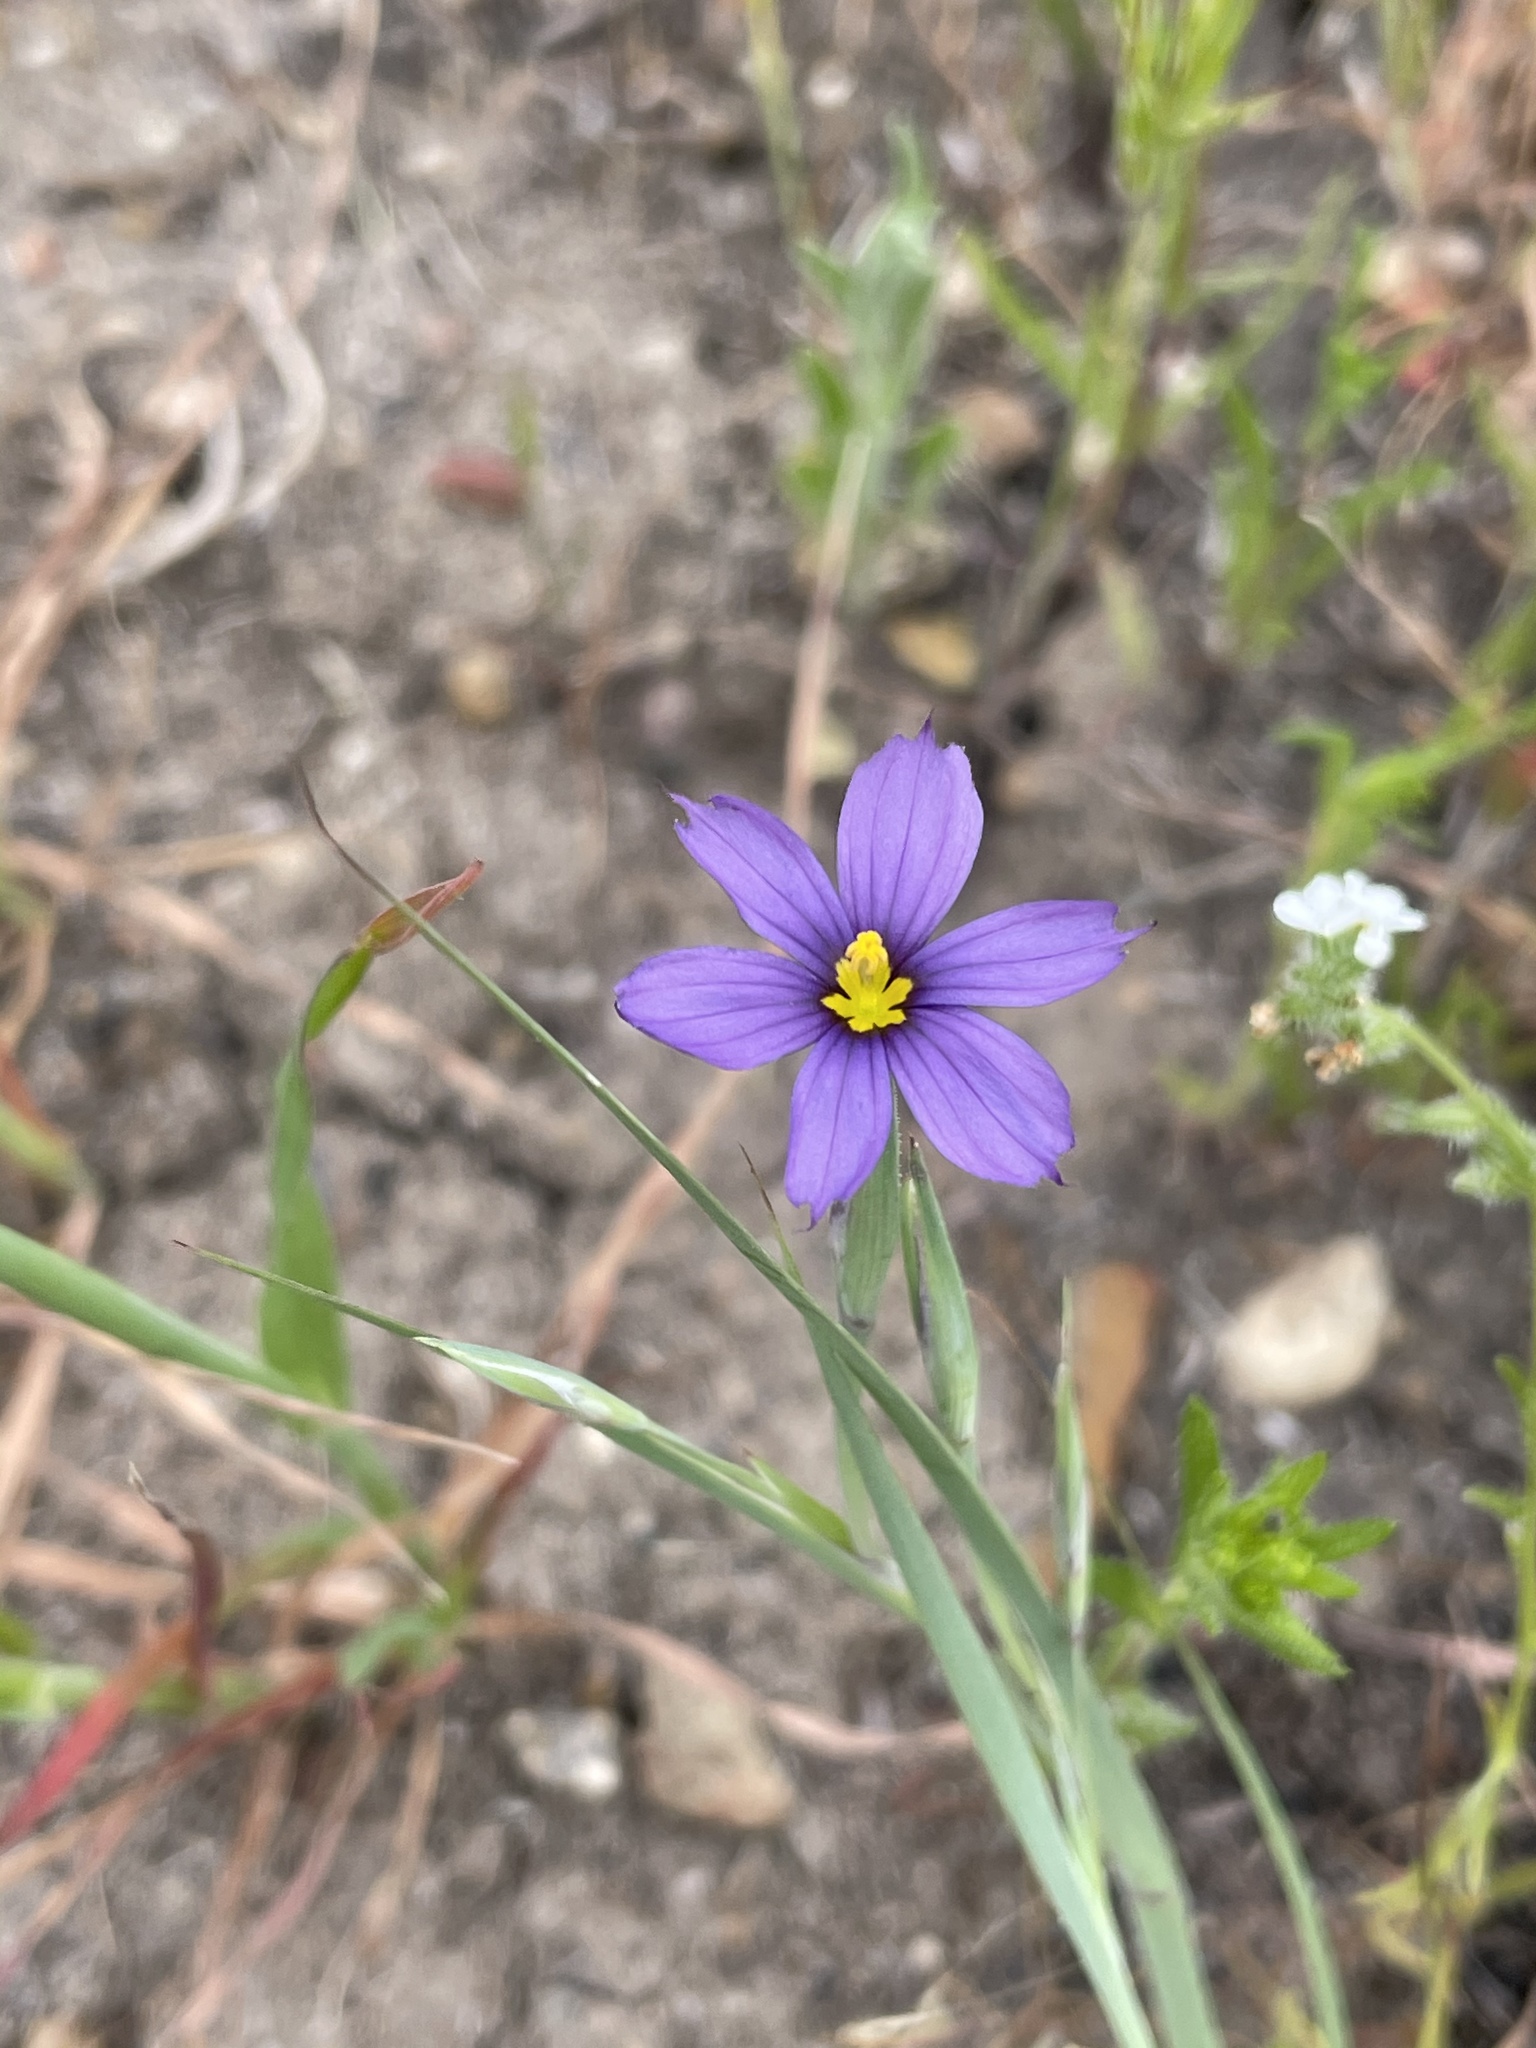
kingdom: Plantae
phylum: Tracheophyta
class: Liliopsida
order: Asparagales
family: Iridaceae
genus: Sisyrinchium
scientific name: Sisyrinchium bellum
